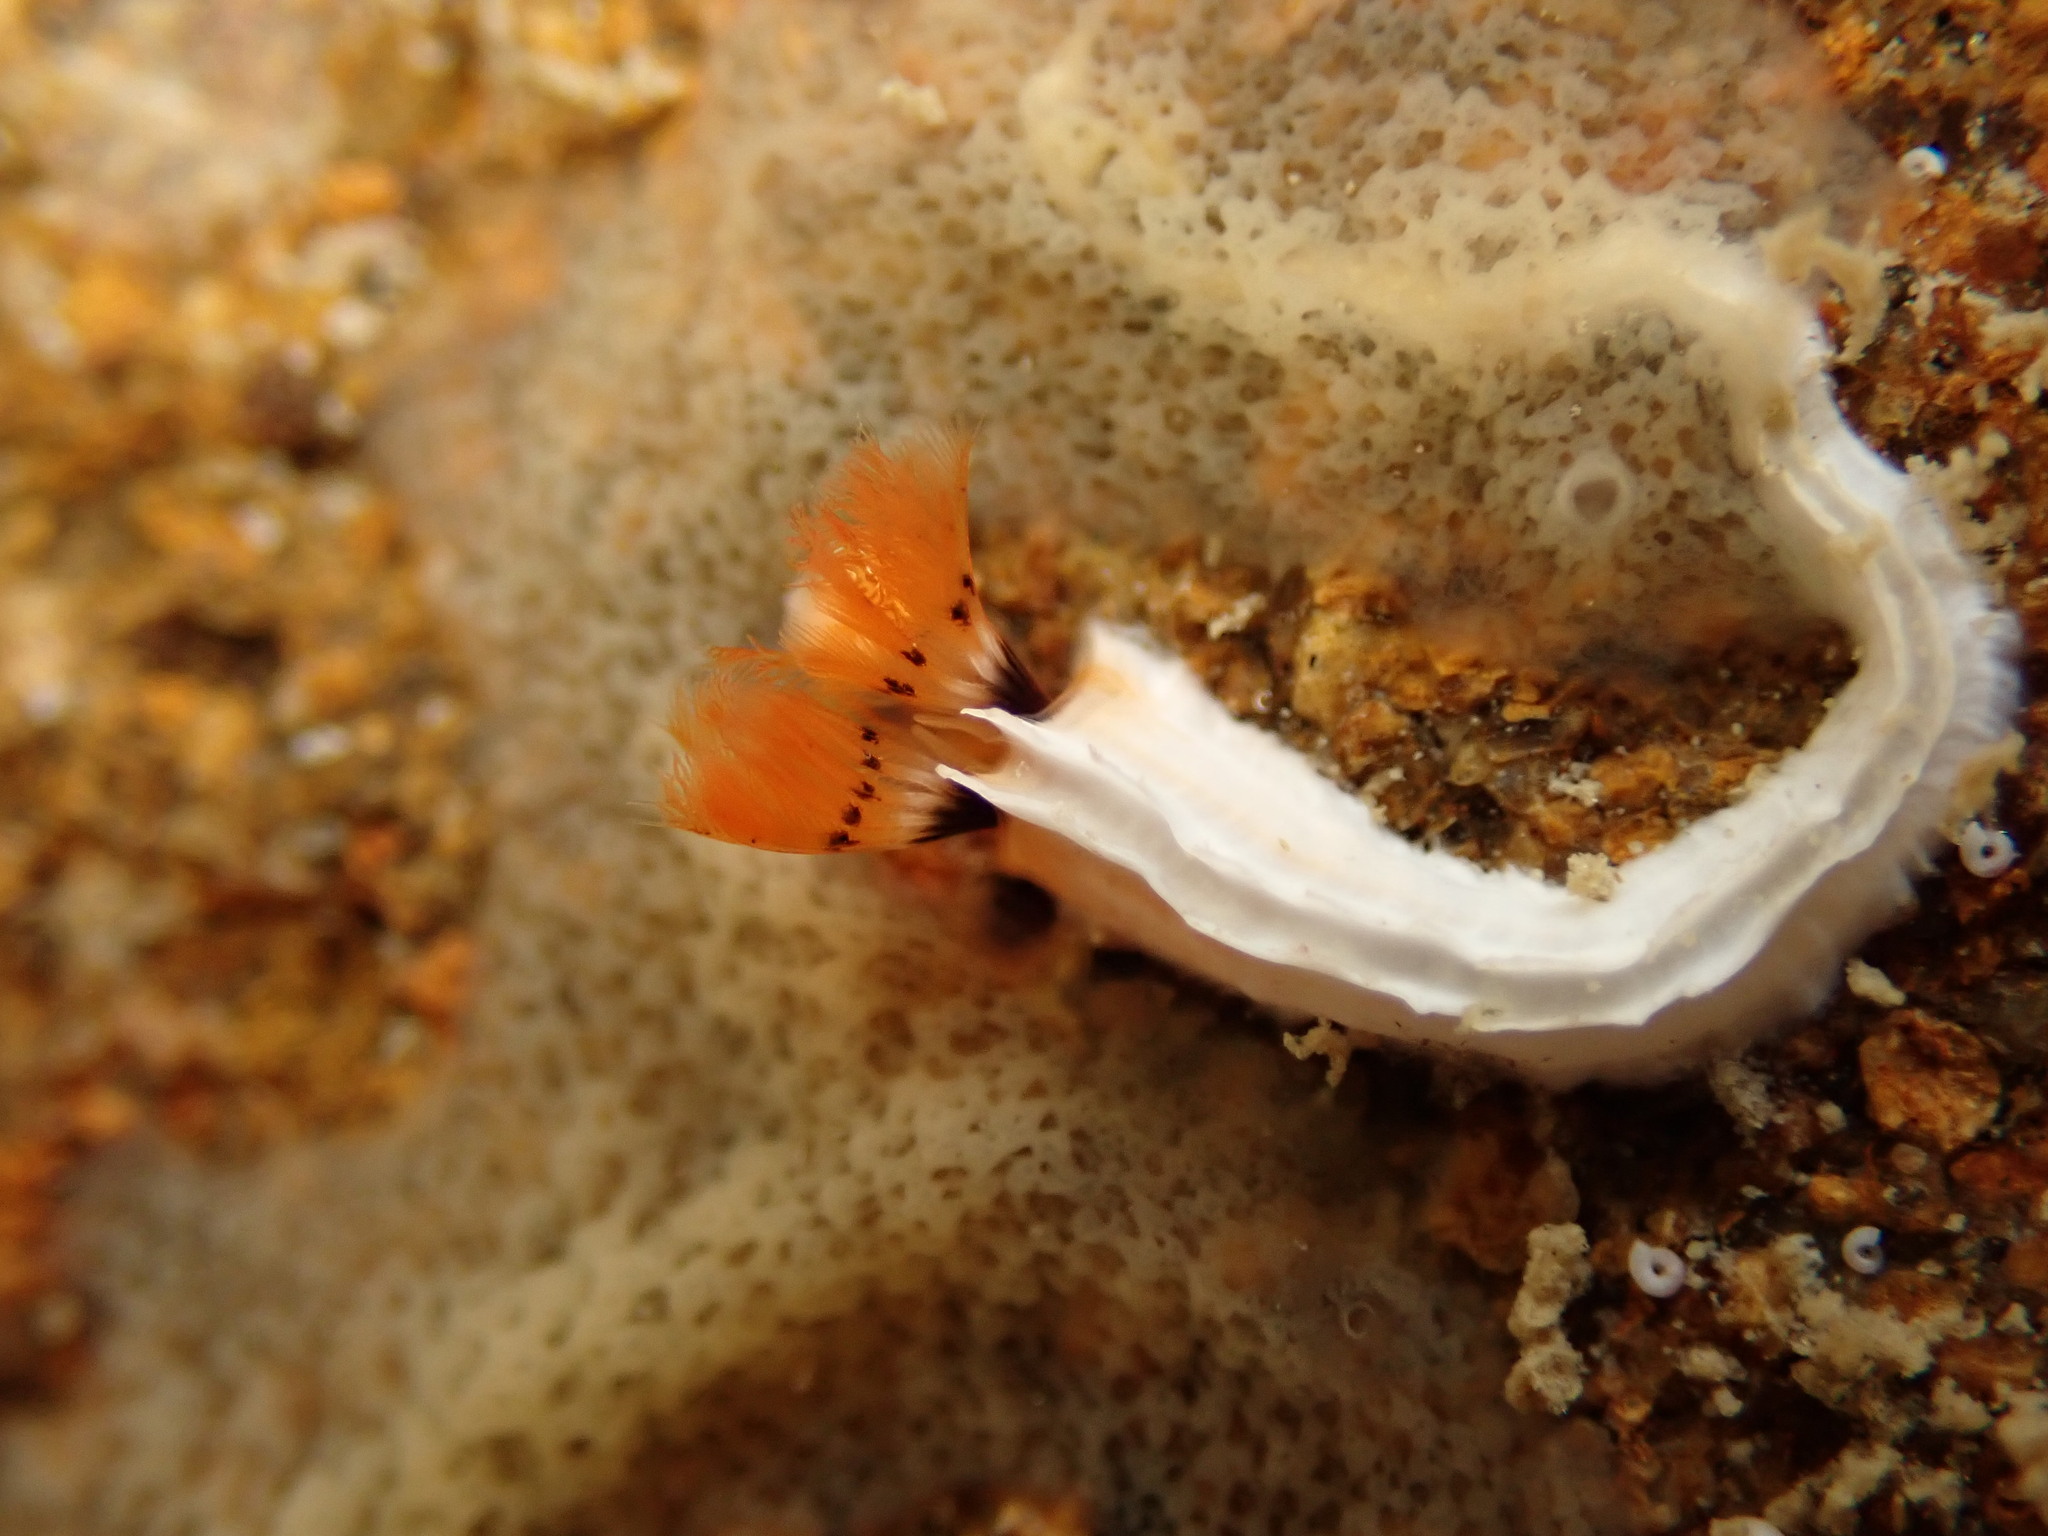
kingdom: Animalia
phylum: Annelida
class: Polychaeta
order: Sabellida
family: Serpulidae
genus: Galeolaria
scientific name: Galeolaria hystrix
